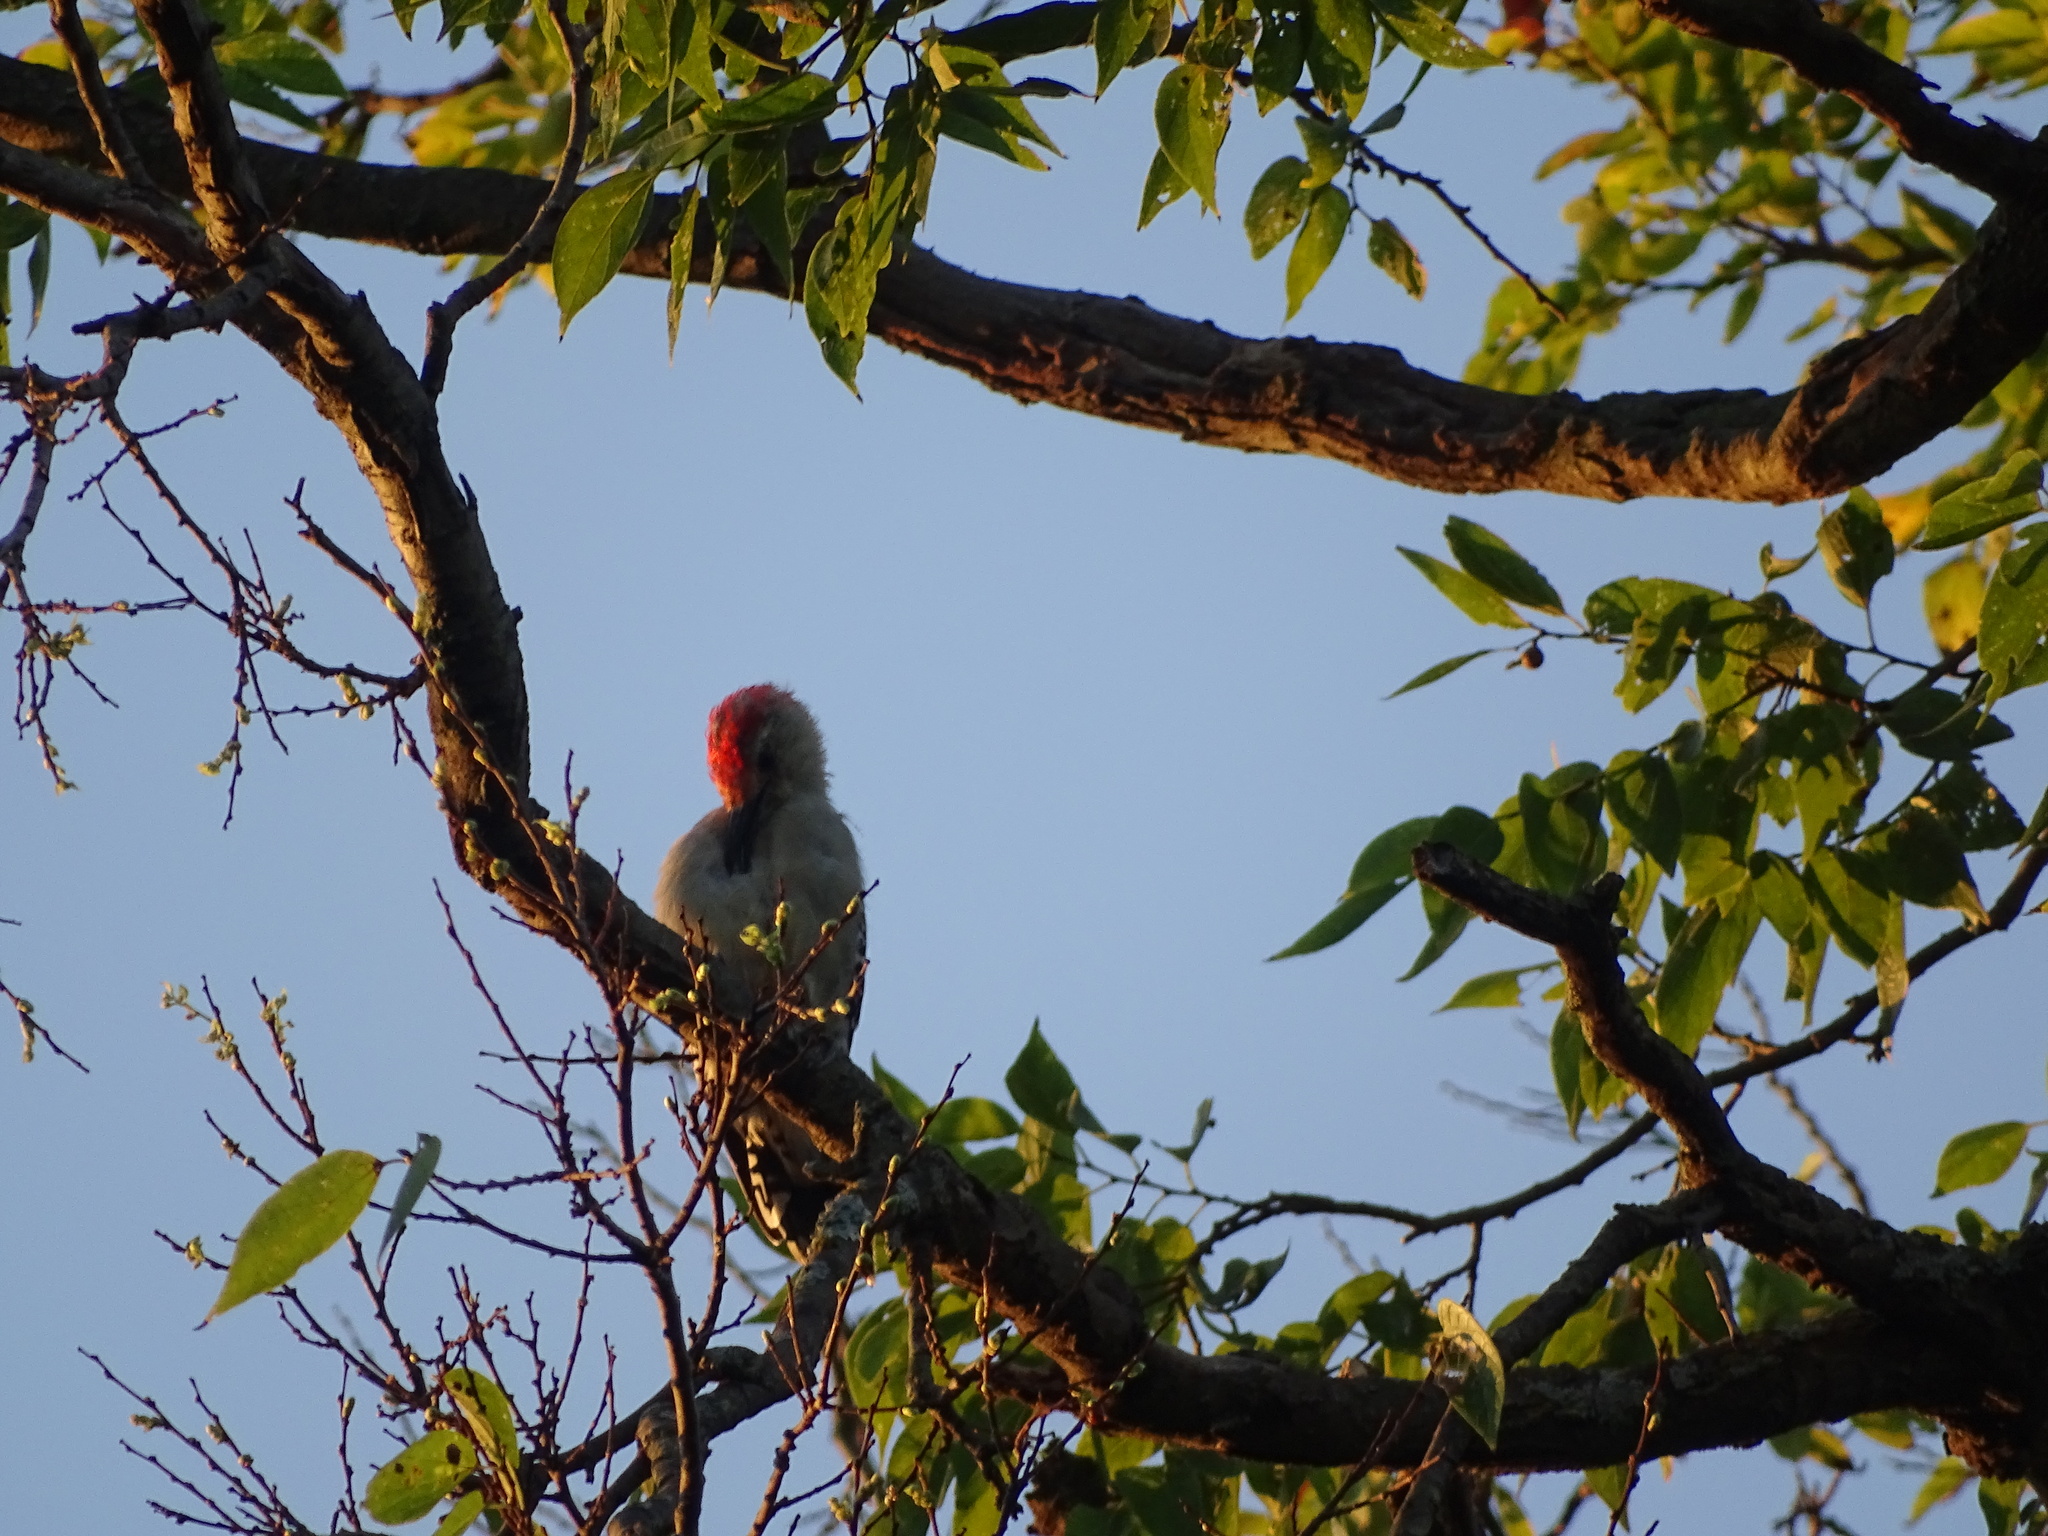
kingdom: Animalia
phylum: Chordata
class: Aves
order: Piciformes
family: Picidae
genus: Melanerpes
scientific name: Melanerpes carolinus
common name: Red-bellied woodpecker
